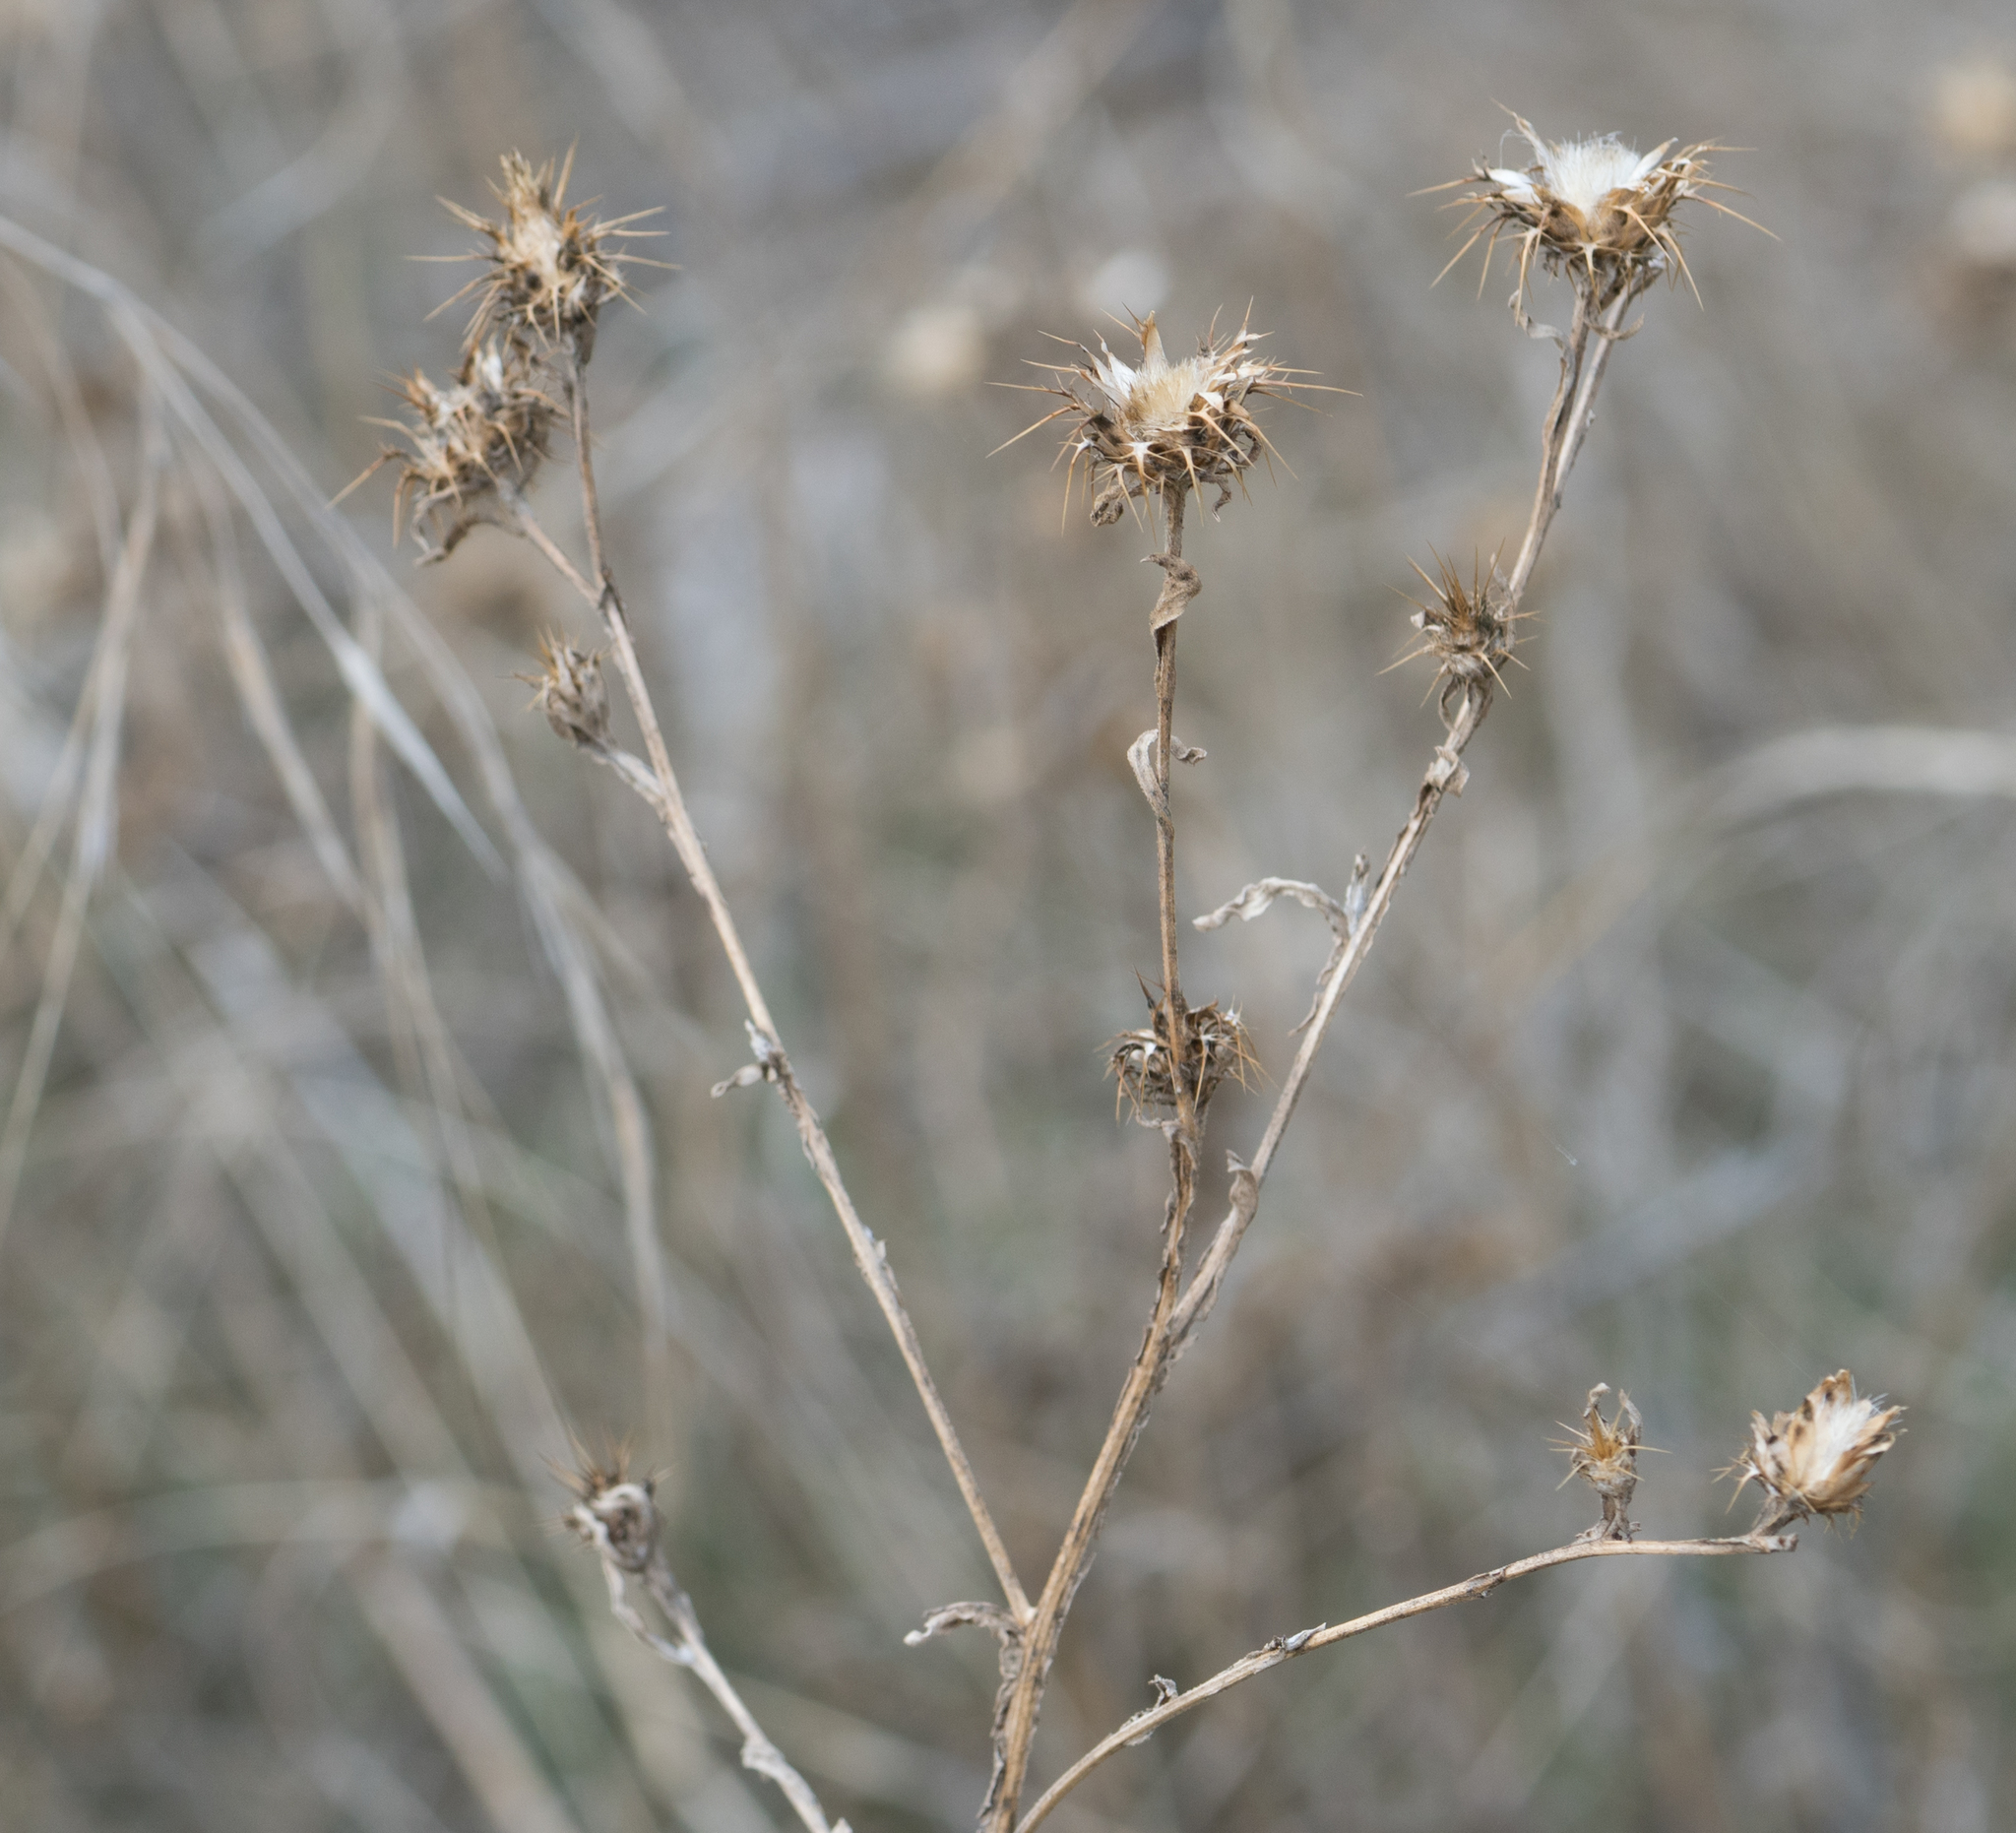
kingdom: Plantae
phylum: Tracheophyta
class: Magnoliopsida
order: Asterales
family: Asteraceae
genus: Centaurea
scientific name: Centaurea melitensis
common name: Maltese star-thistle
